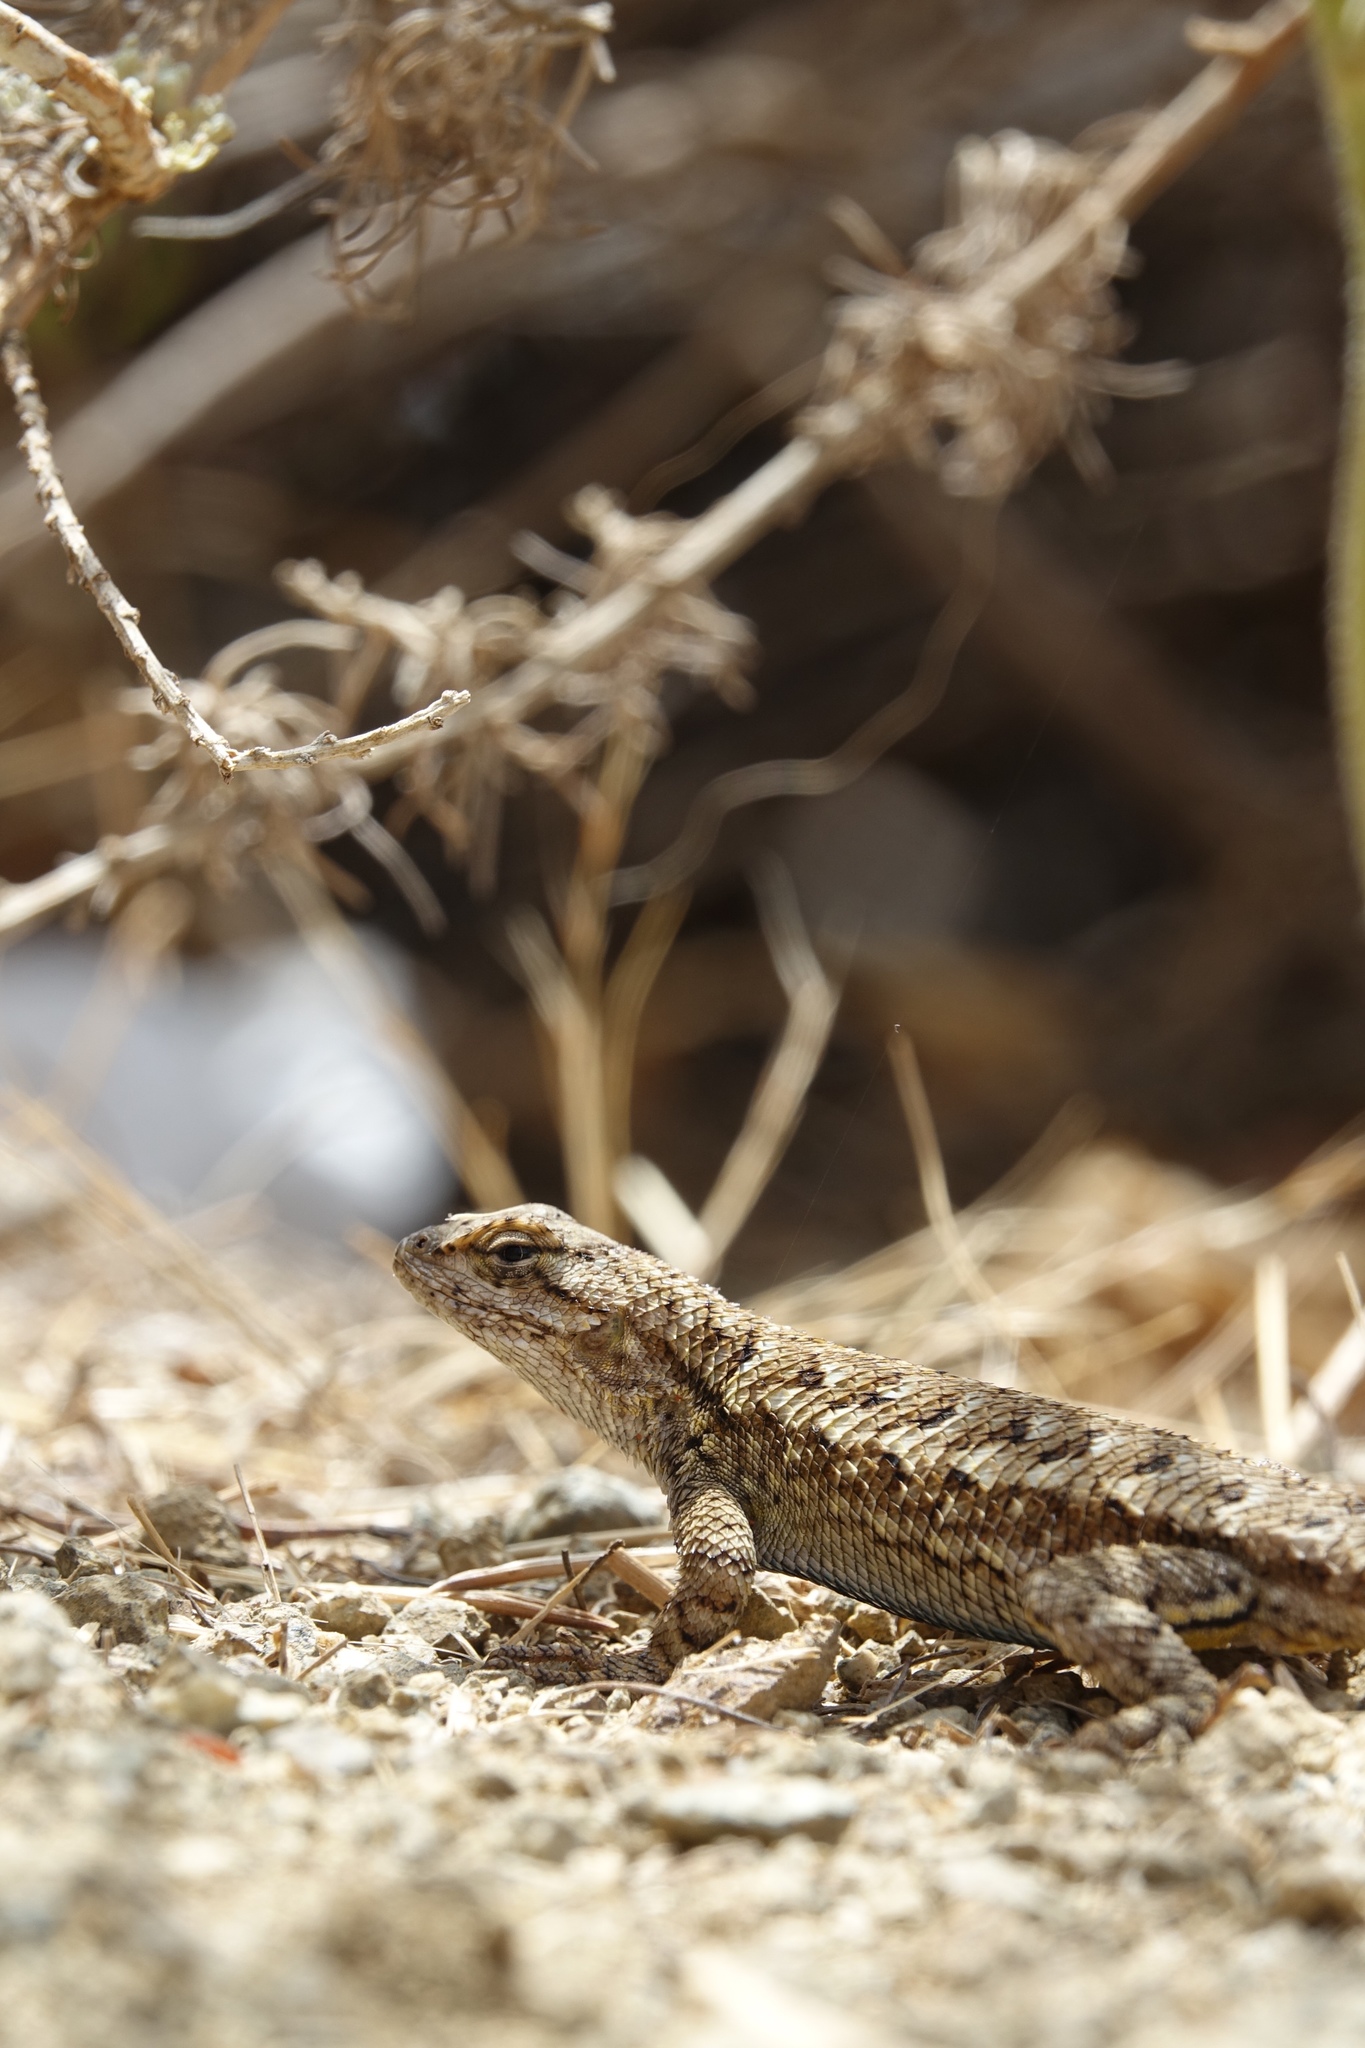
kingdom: Animalia
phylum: Chordata
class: Squamata
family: Phrynosomatidae
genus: Sceloporus
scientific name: Sceloporus occidentalis
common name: Western fence lizard
